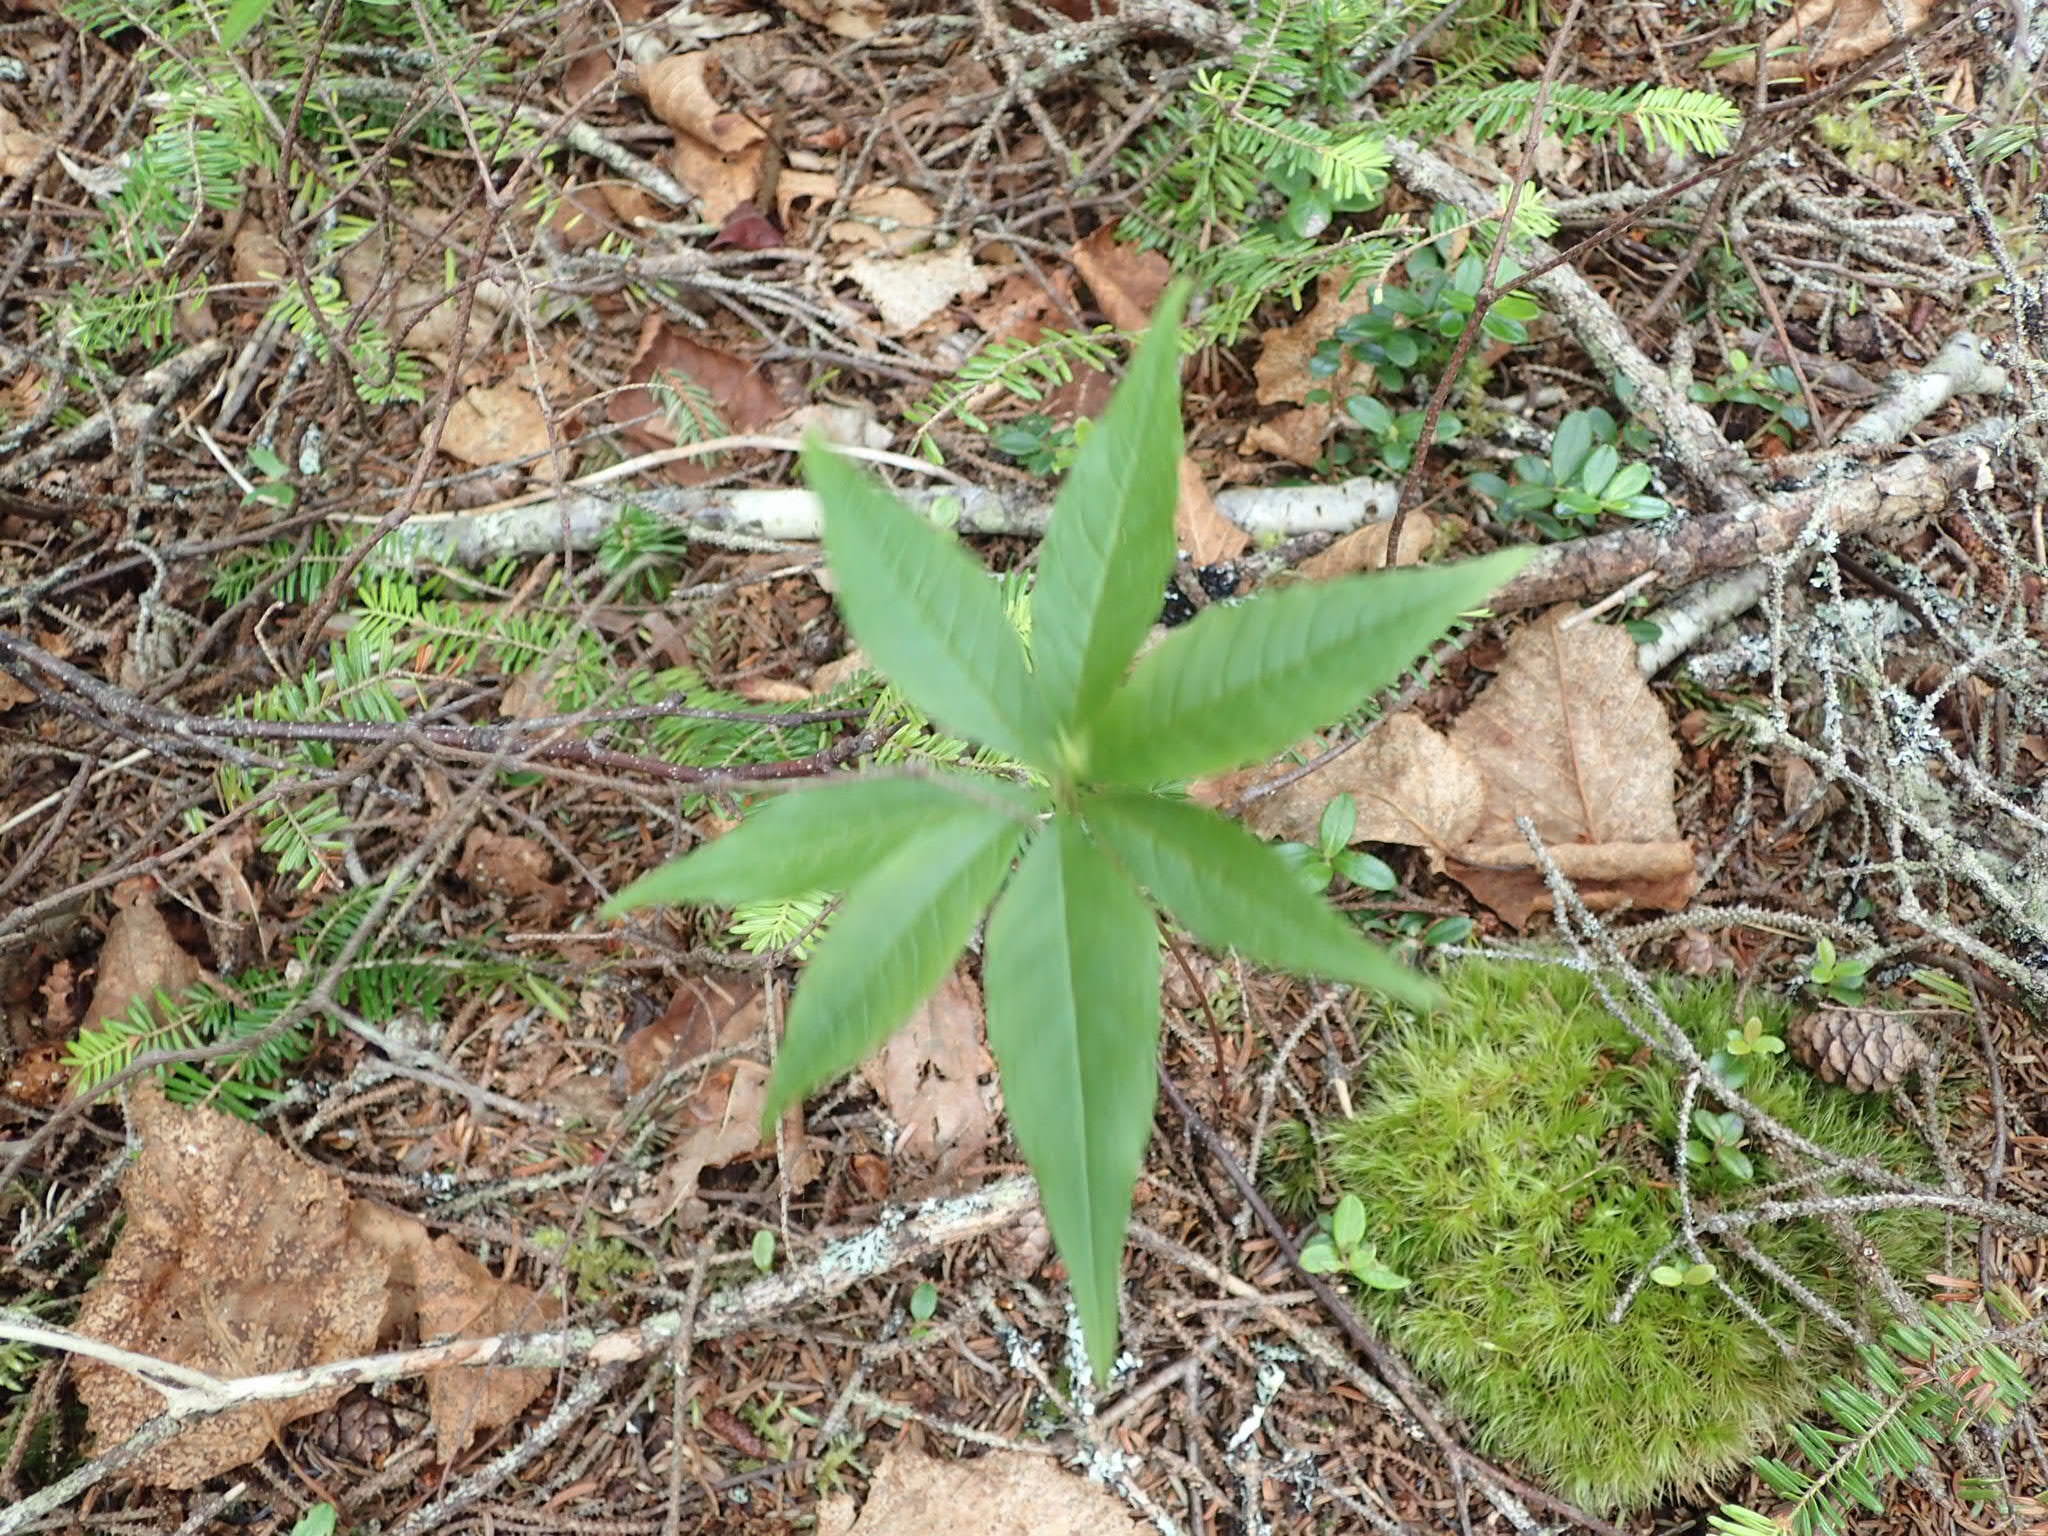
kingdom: Plantae
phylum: Tracheophyta
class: Magnoliopsida
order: Ericales
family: Primulaceae
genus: Lysimachia
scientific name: Lysimachia borealis
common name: American starflower
